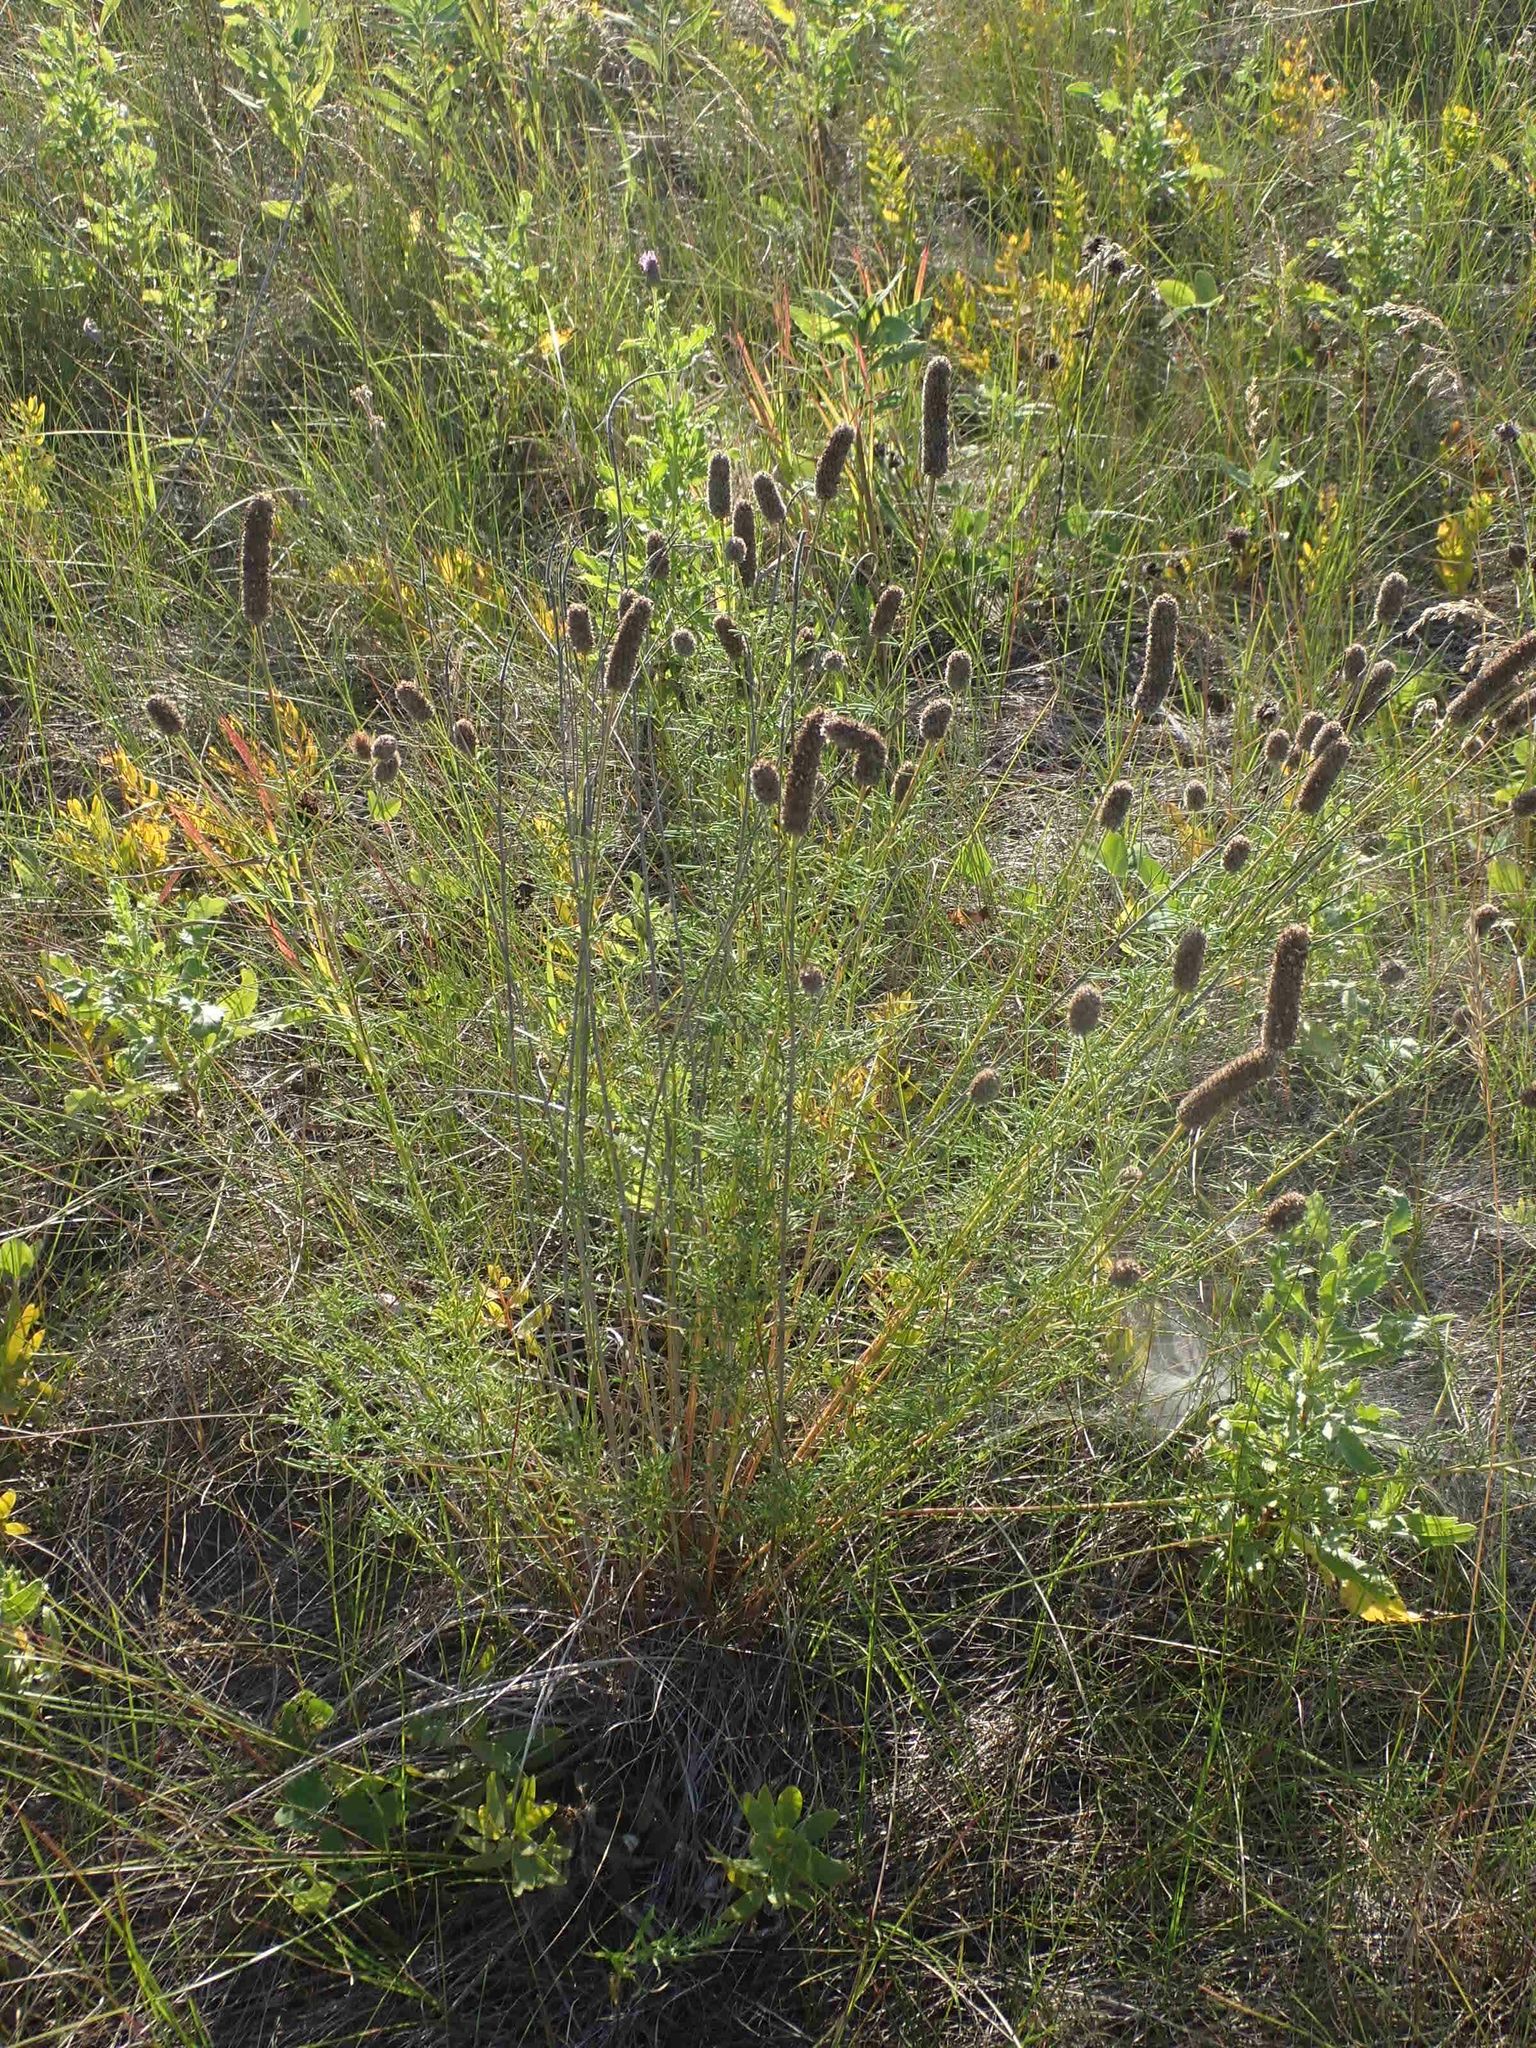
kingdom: Plantae
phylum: Tracheophyta
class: Magnoliopsida
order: Fabales
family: Fabaceae
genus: Dalea
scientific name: Dalea purpurea
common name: Purple prairie-clover
